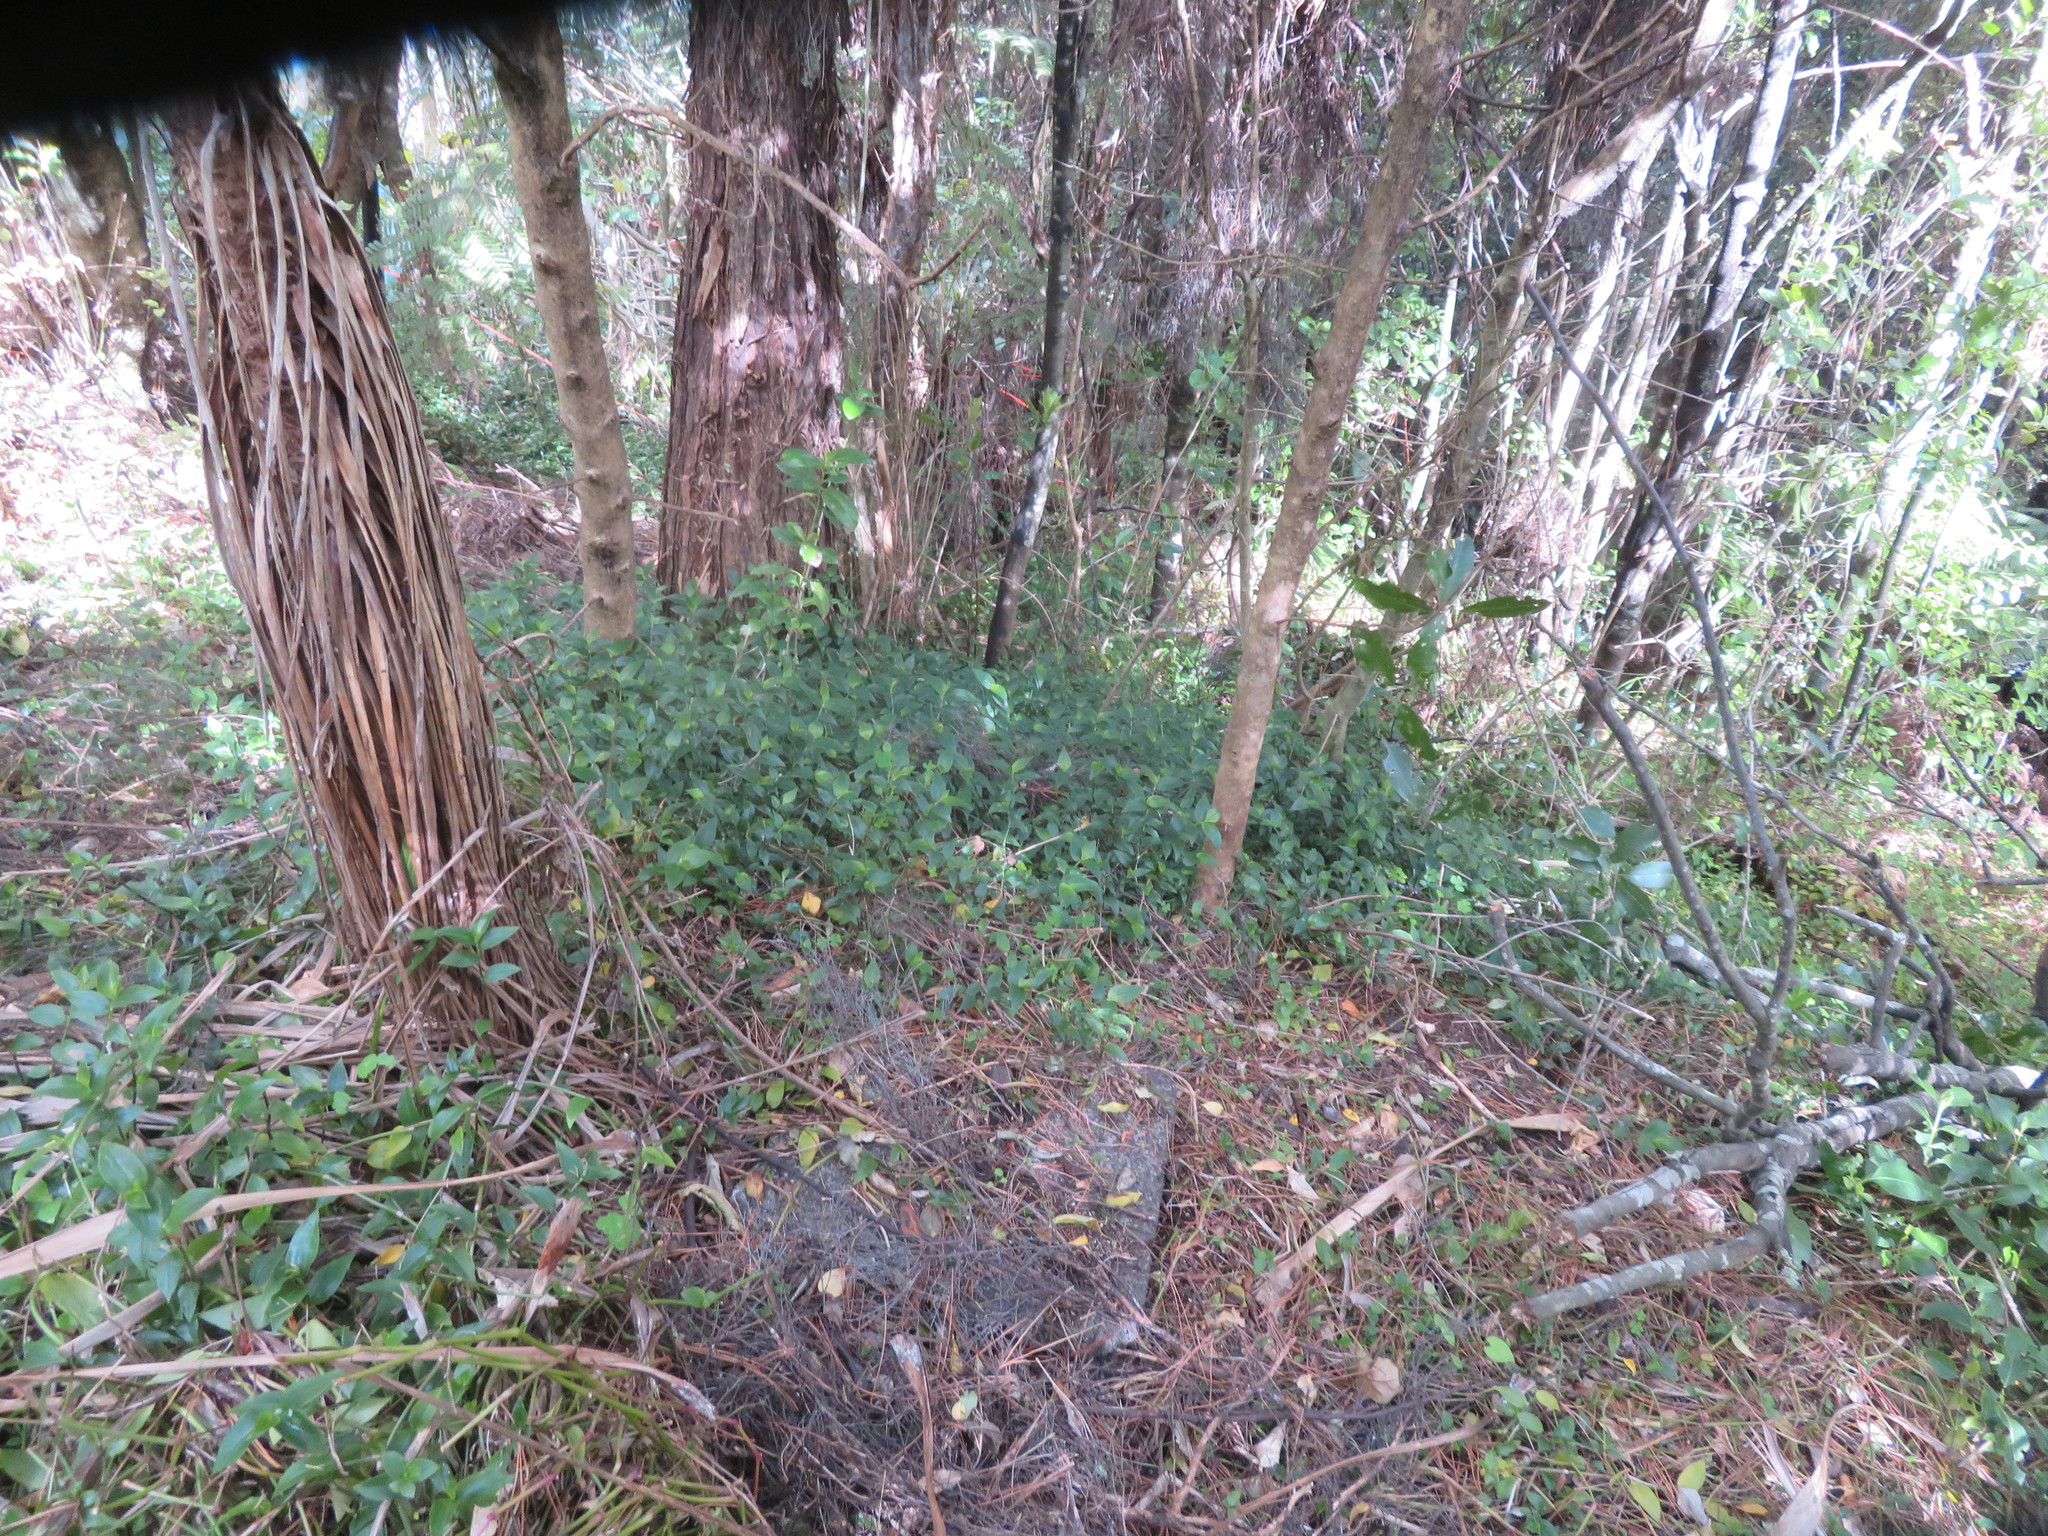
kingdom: Plantae
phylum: Tracheophyta
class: Liliopsida
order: Commelinales
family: Commelinaceae
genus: Tradescantia
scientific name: Tradescantia fluminensis
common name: Wandering-jew
